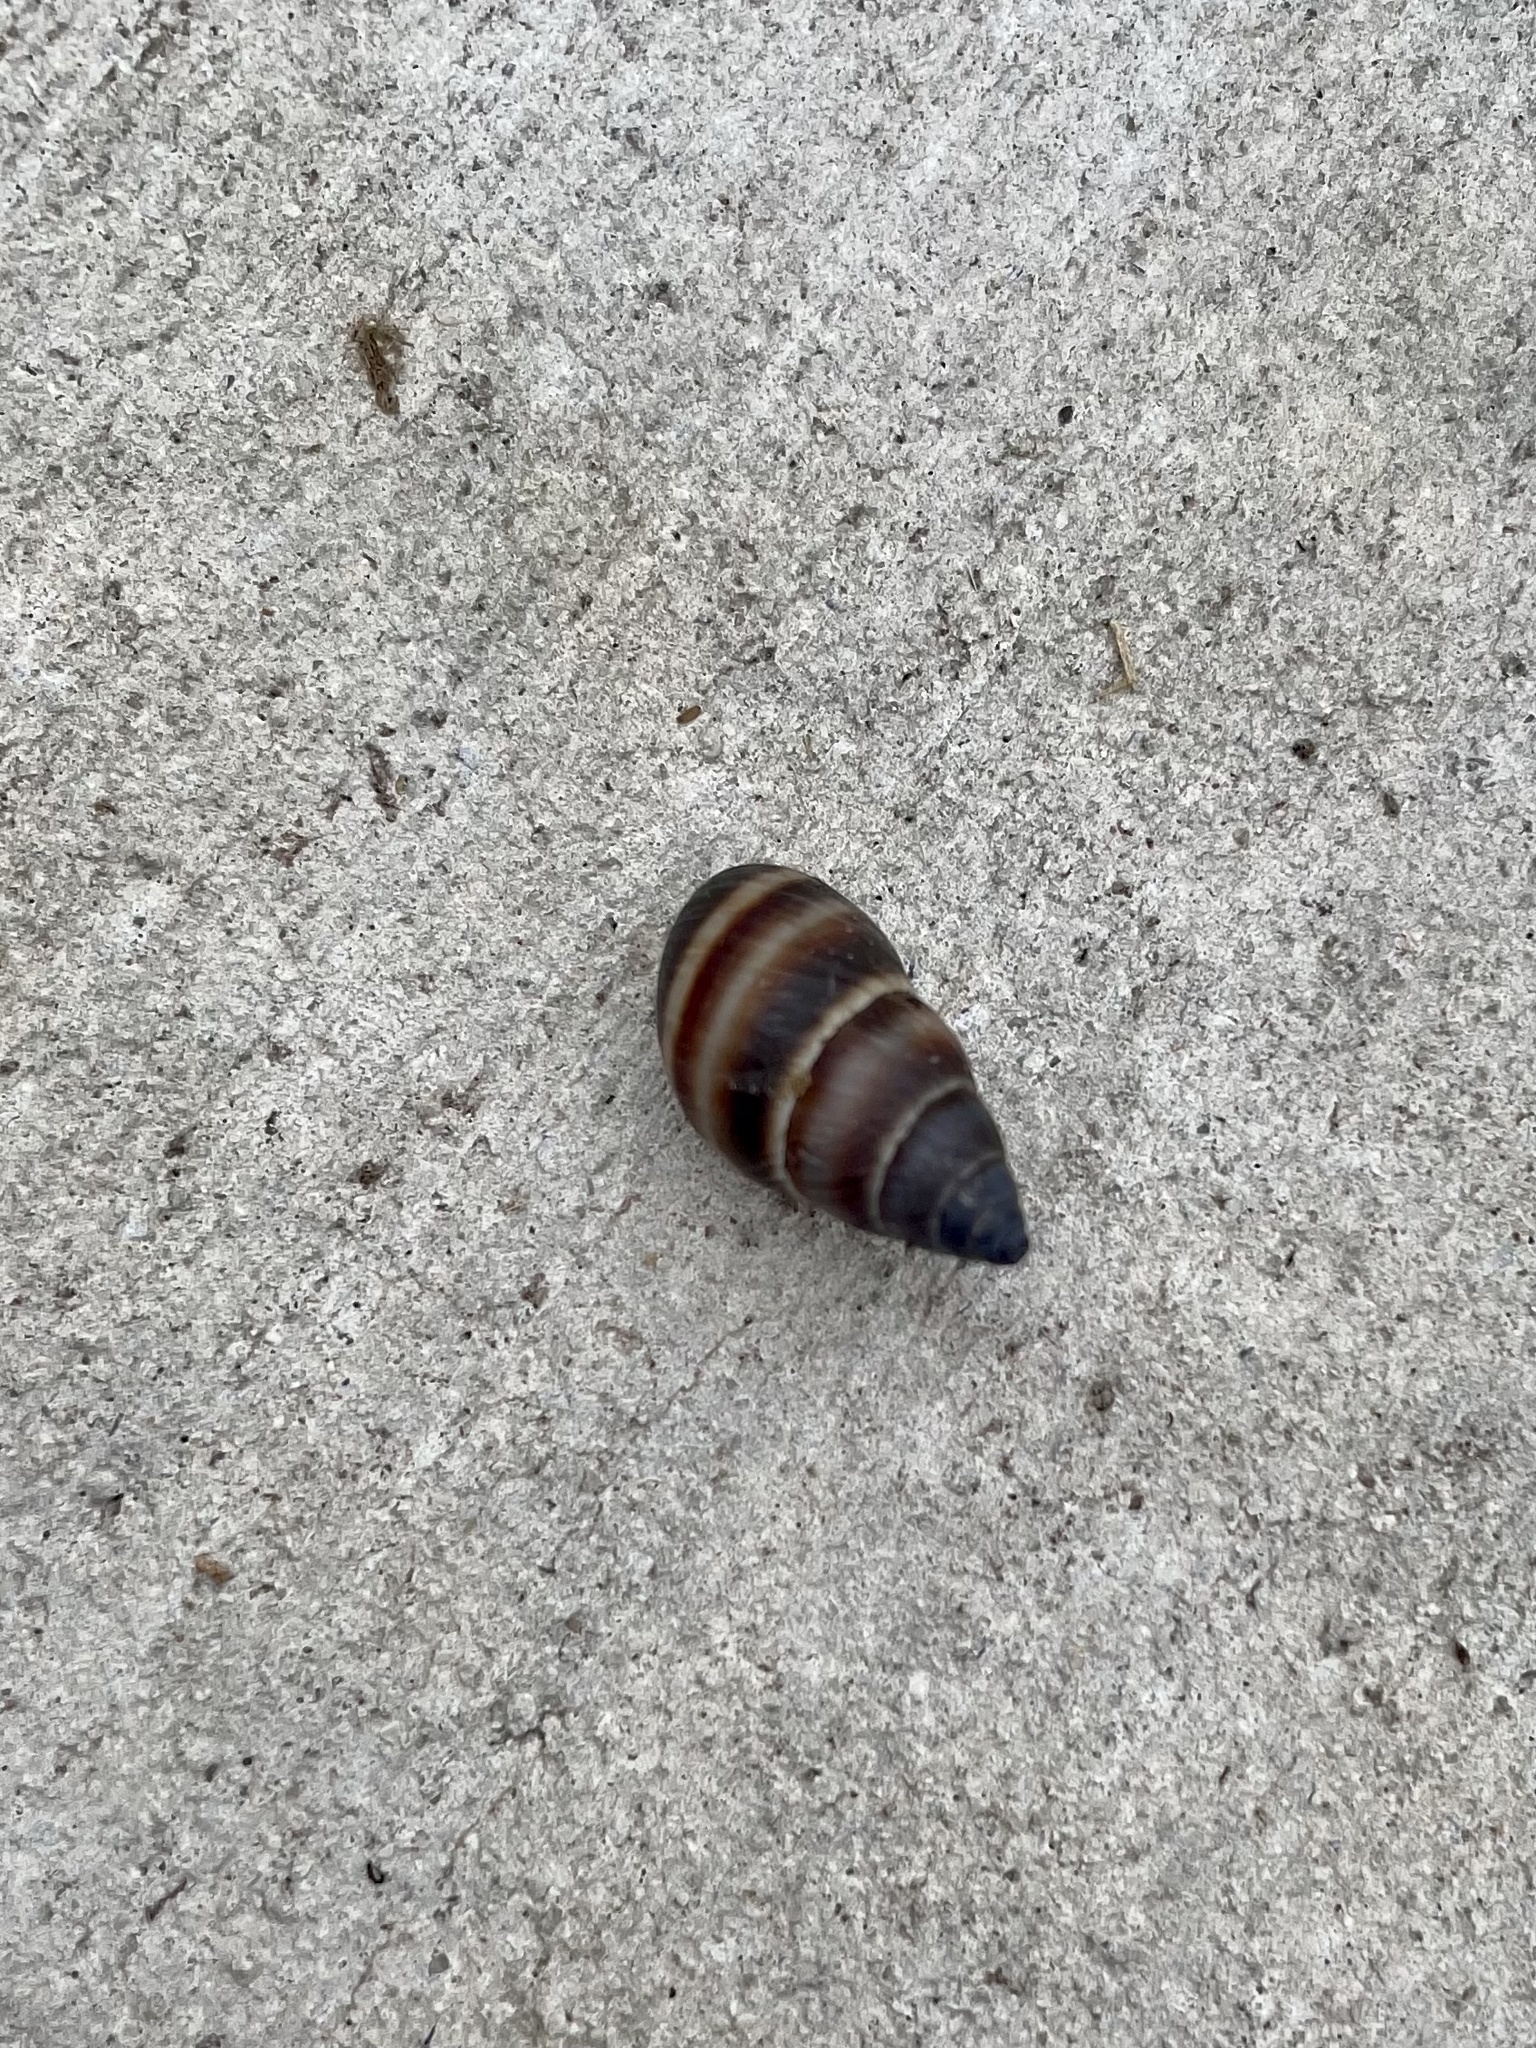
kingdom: Animalia
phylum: Mollusca
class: Gastropoda
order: Stylommatophora
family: Bulimulidae
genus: Bulimulus
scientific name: Bulimulus guadalupensis
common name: West indian bulimulus
